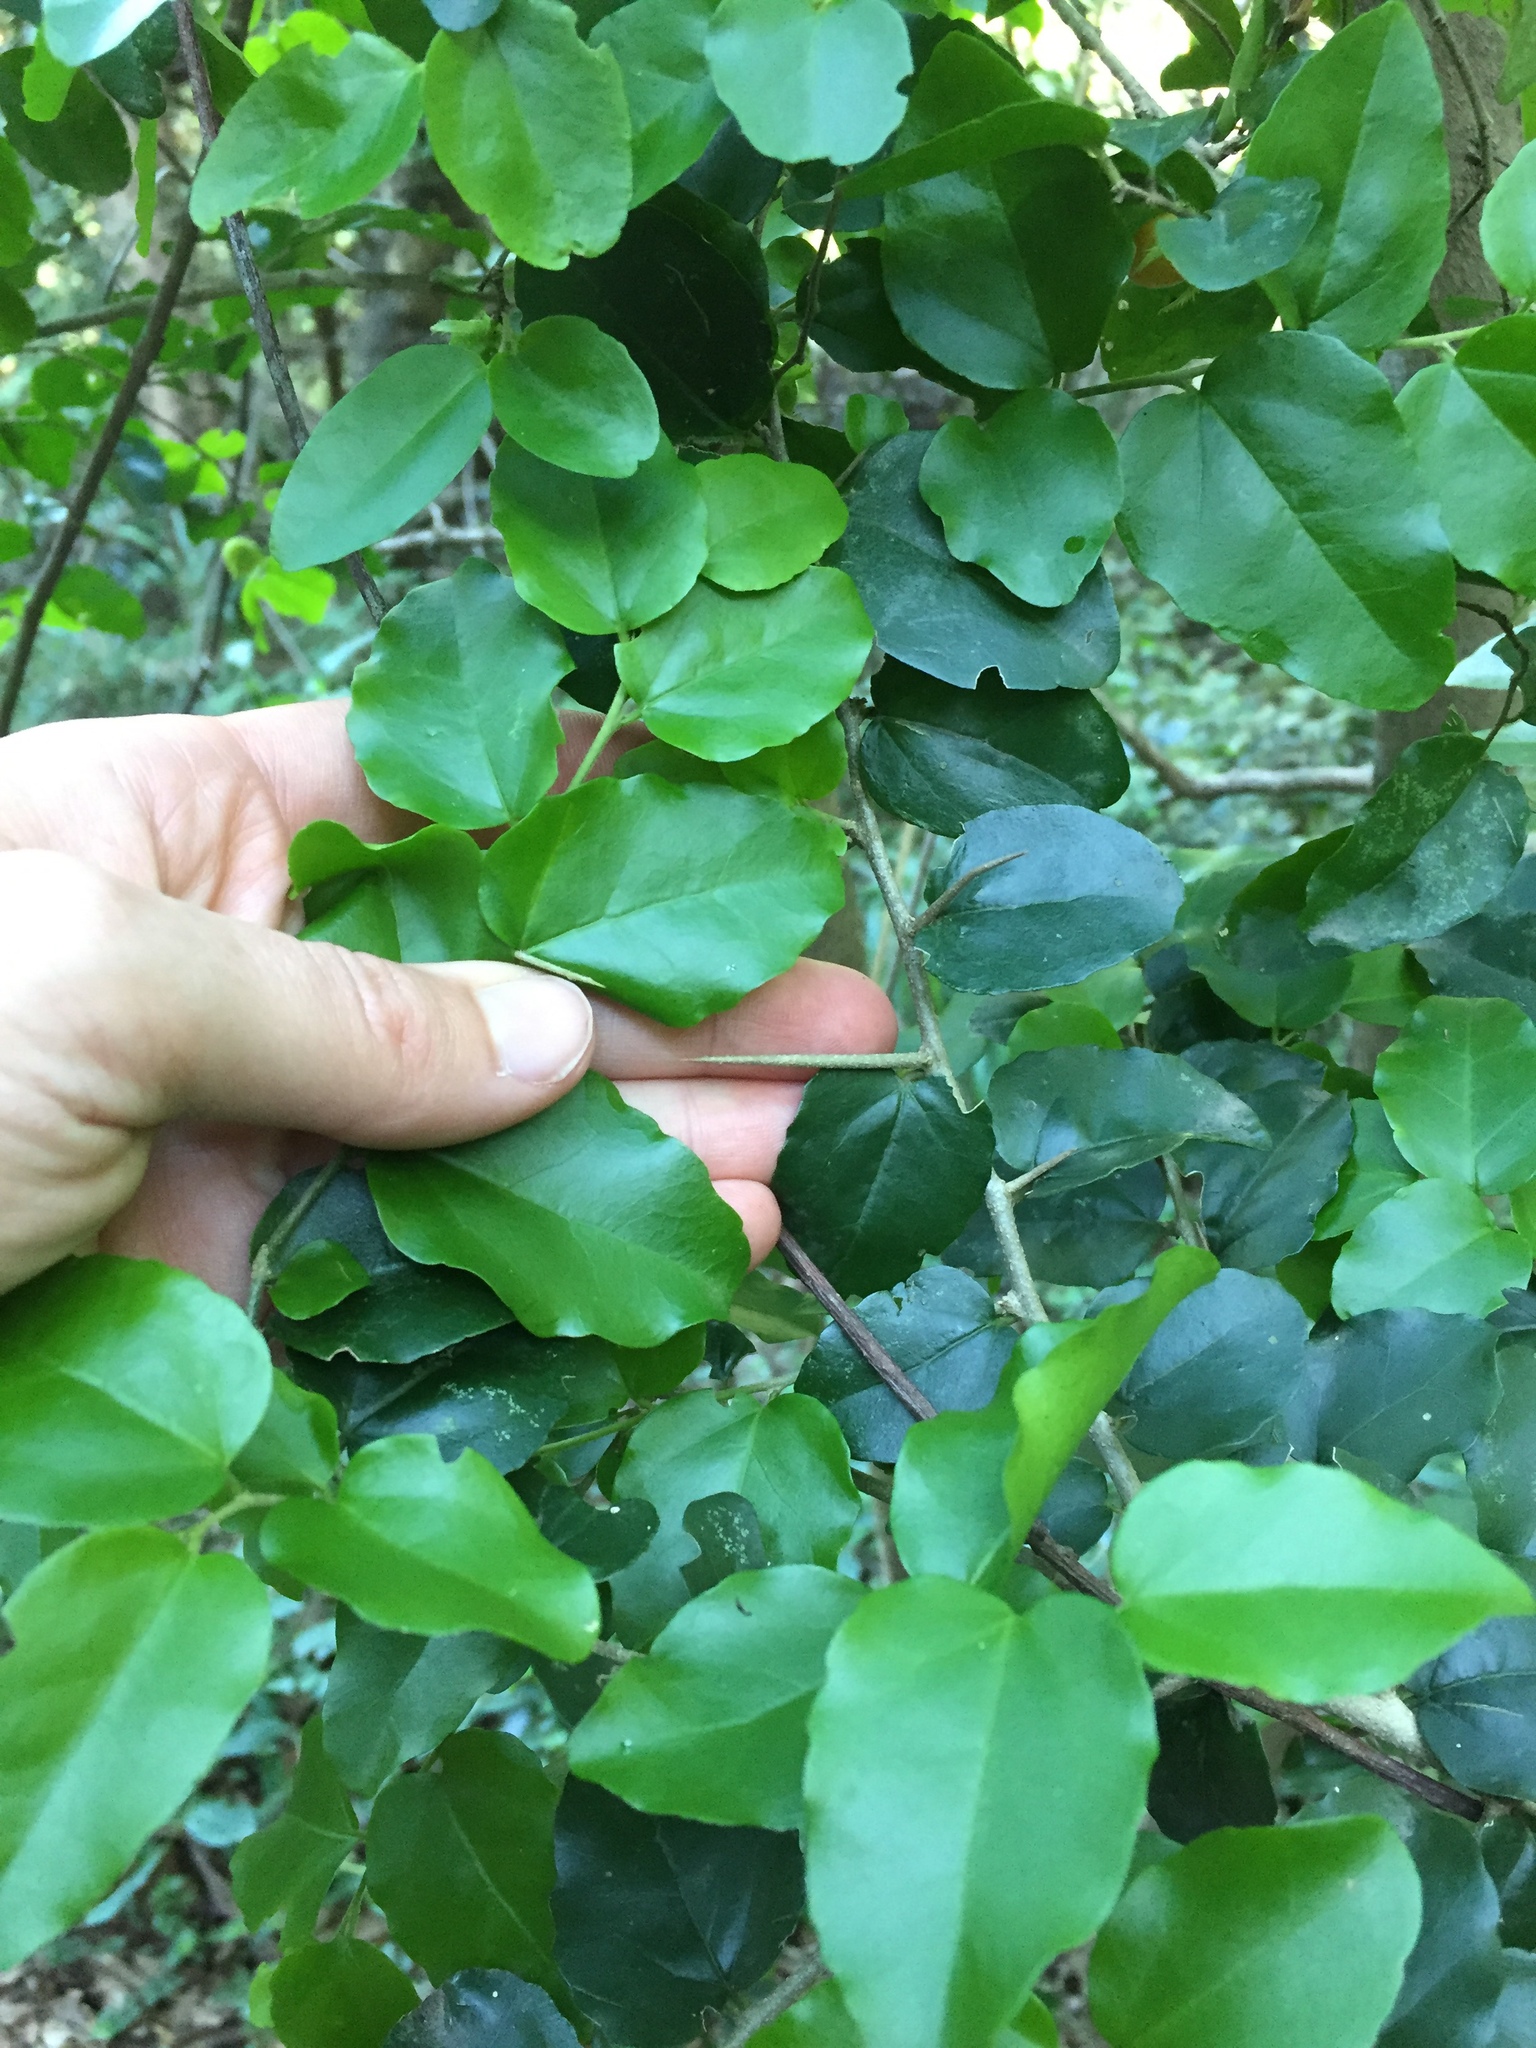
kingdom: Plantae
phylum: Tracheophyta
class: Magnoliopsida
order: Malpighiales
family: Salicaceae
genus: Dovyalis
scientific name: Dovyalis rhamnoides
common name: Sourberry
